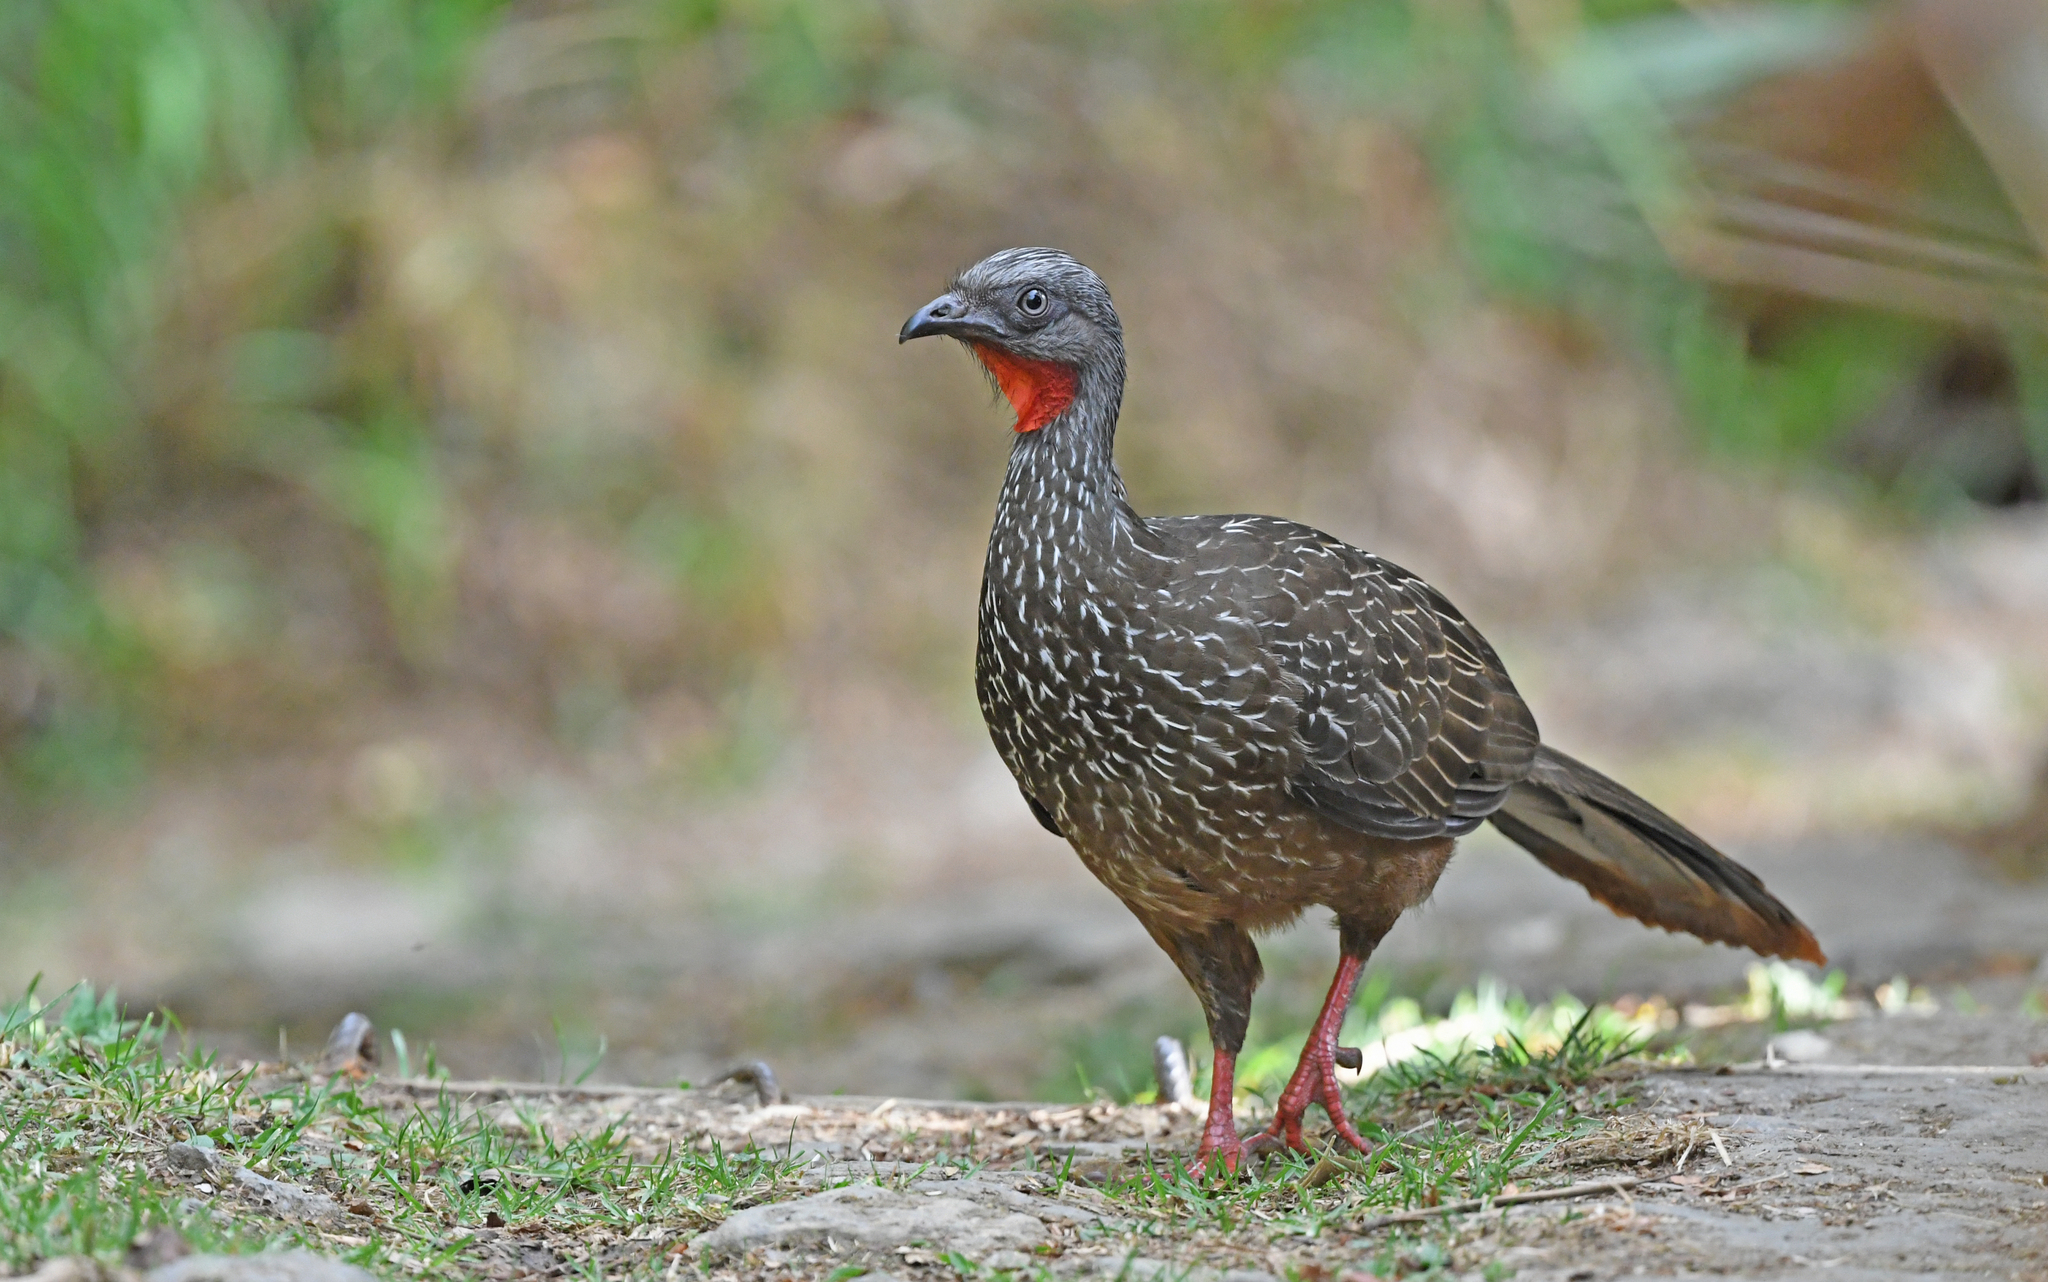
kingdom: Animalia
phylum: Chordata
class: Aves
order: Galliformes
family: Cracidae
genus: Penelope
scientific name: Penelope argyrotis
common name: Band-tailed guan
